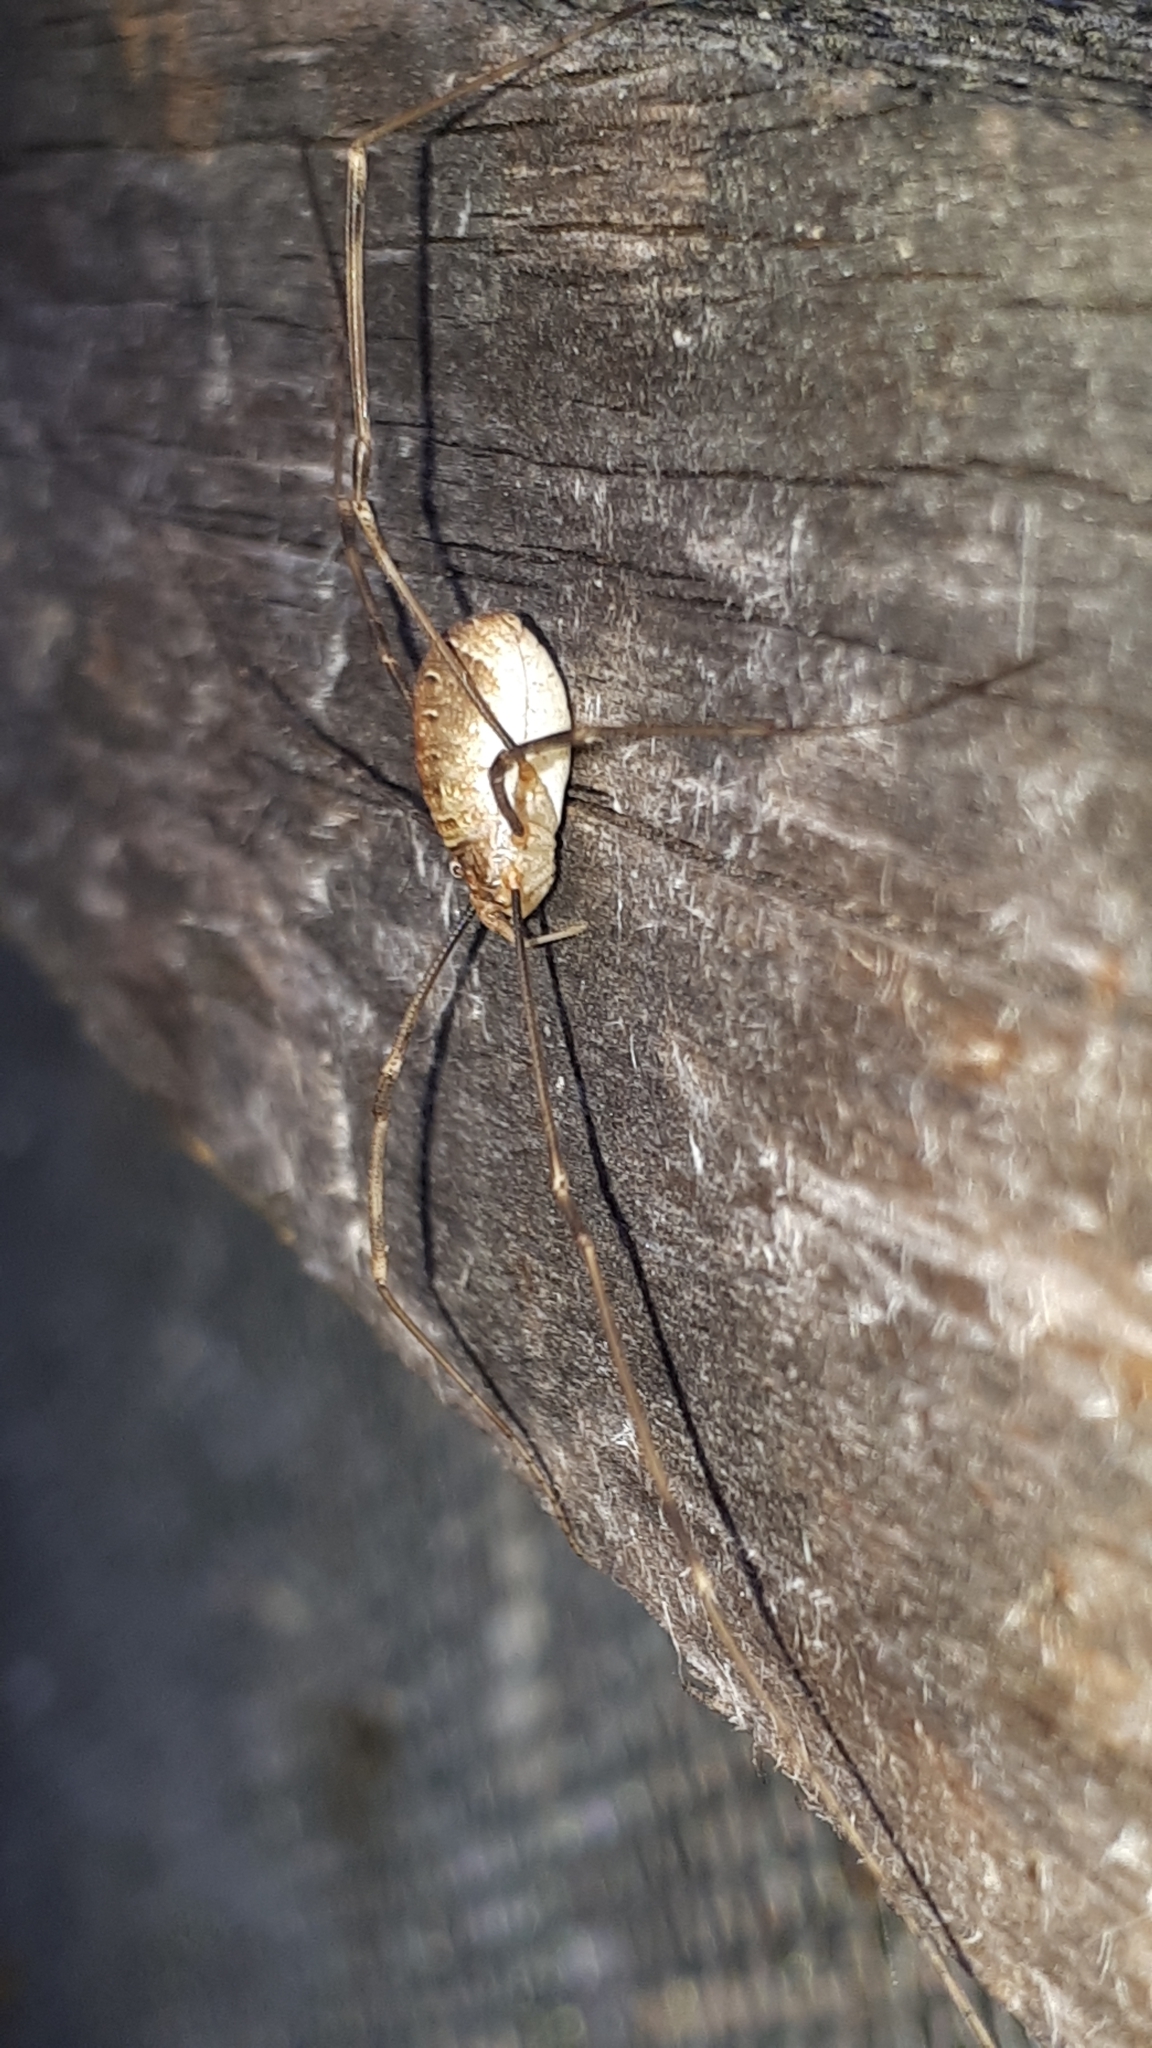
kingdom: Animalia
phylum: Arthropoda
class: Arachnida
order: Opiliones
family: Phalangiidae
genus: Opilio
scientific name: Opilio canestrinii
